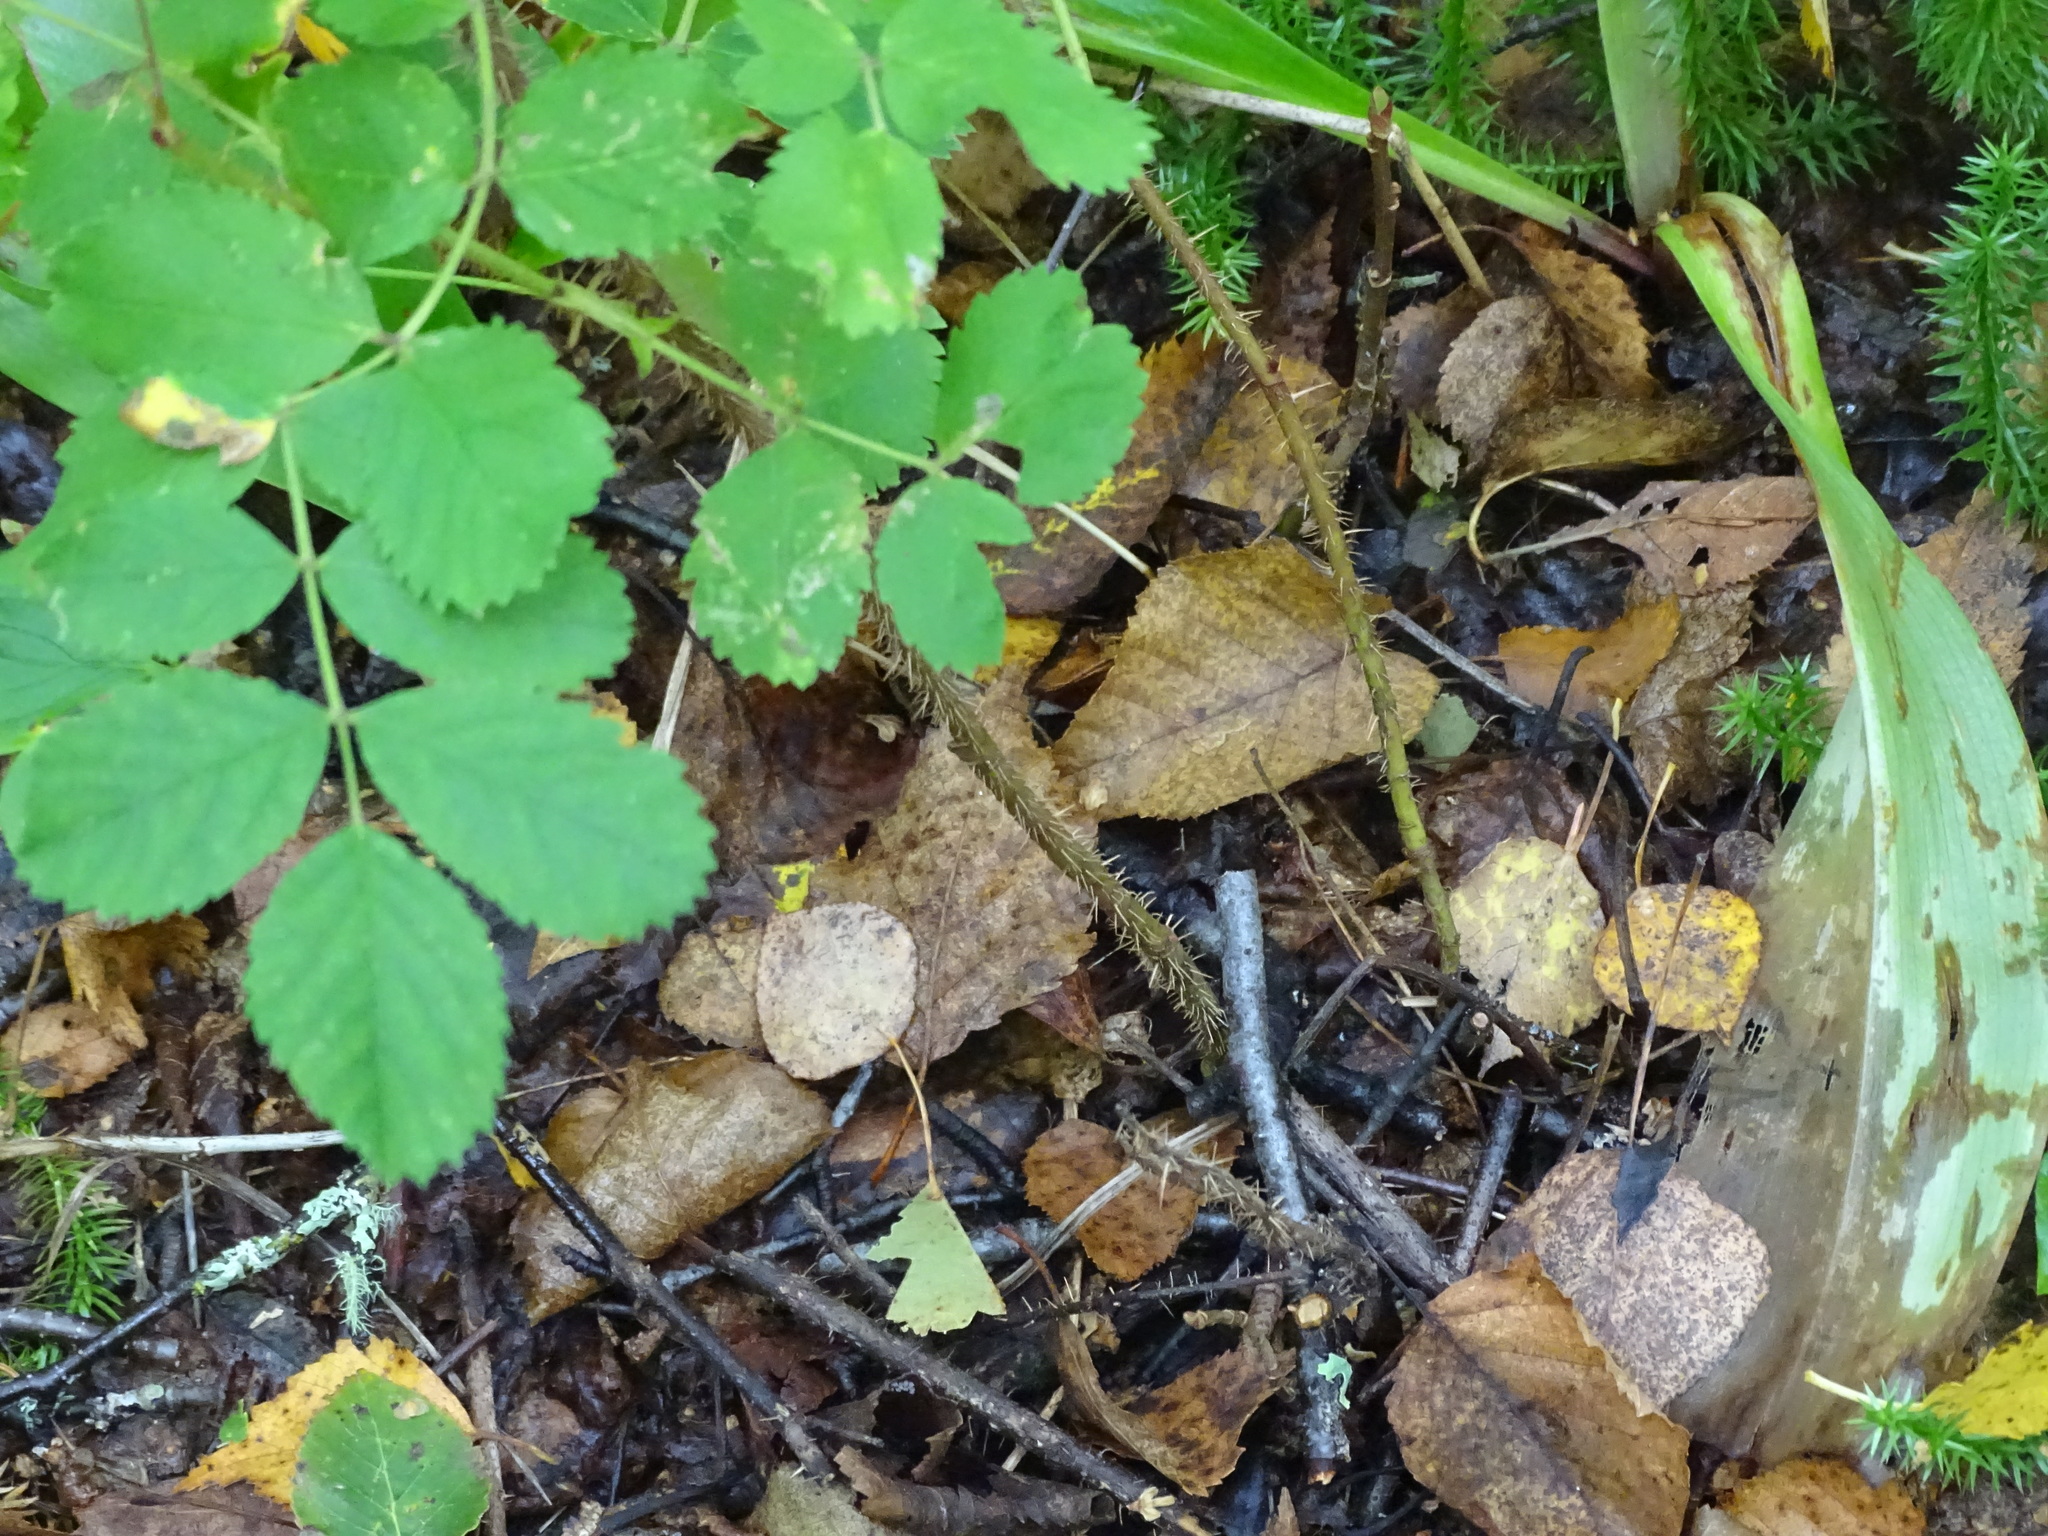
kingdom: Plantae
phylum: Tracheophyta
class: Magnoliopsida
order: Rosales
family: Rosaceae
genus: Rosa
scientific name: Rosa acicularis
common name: Prickly rose
